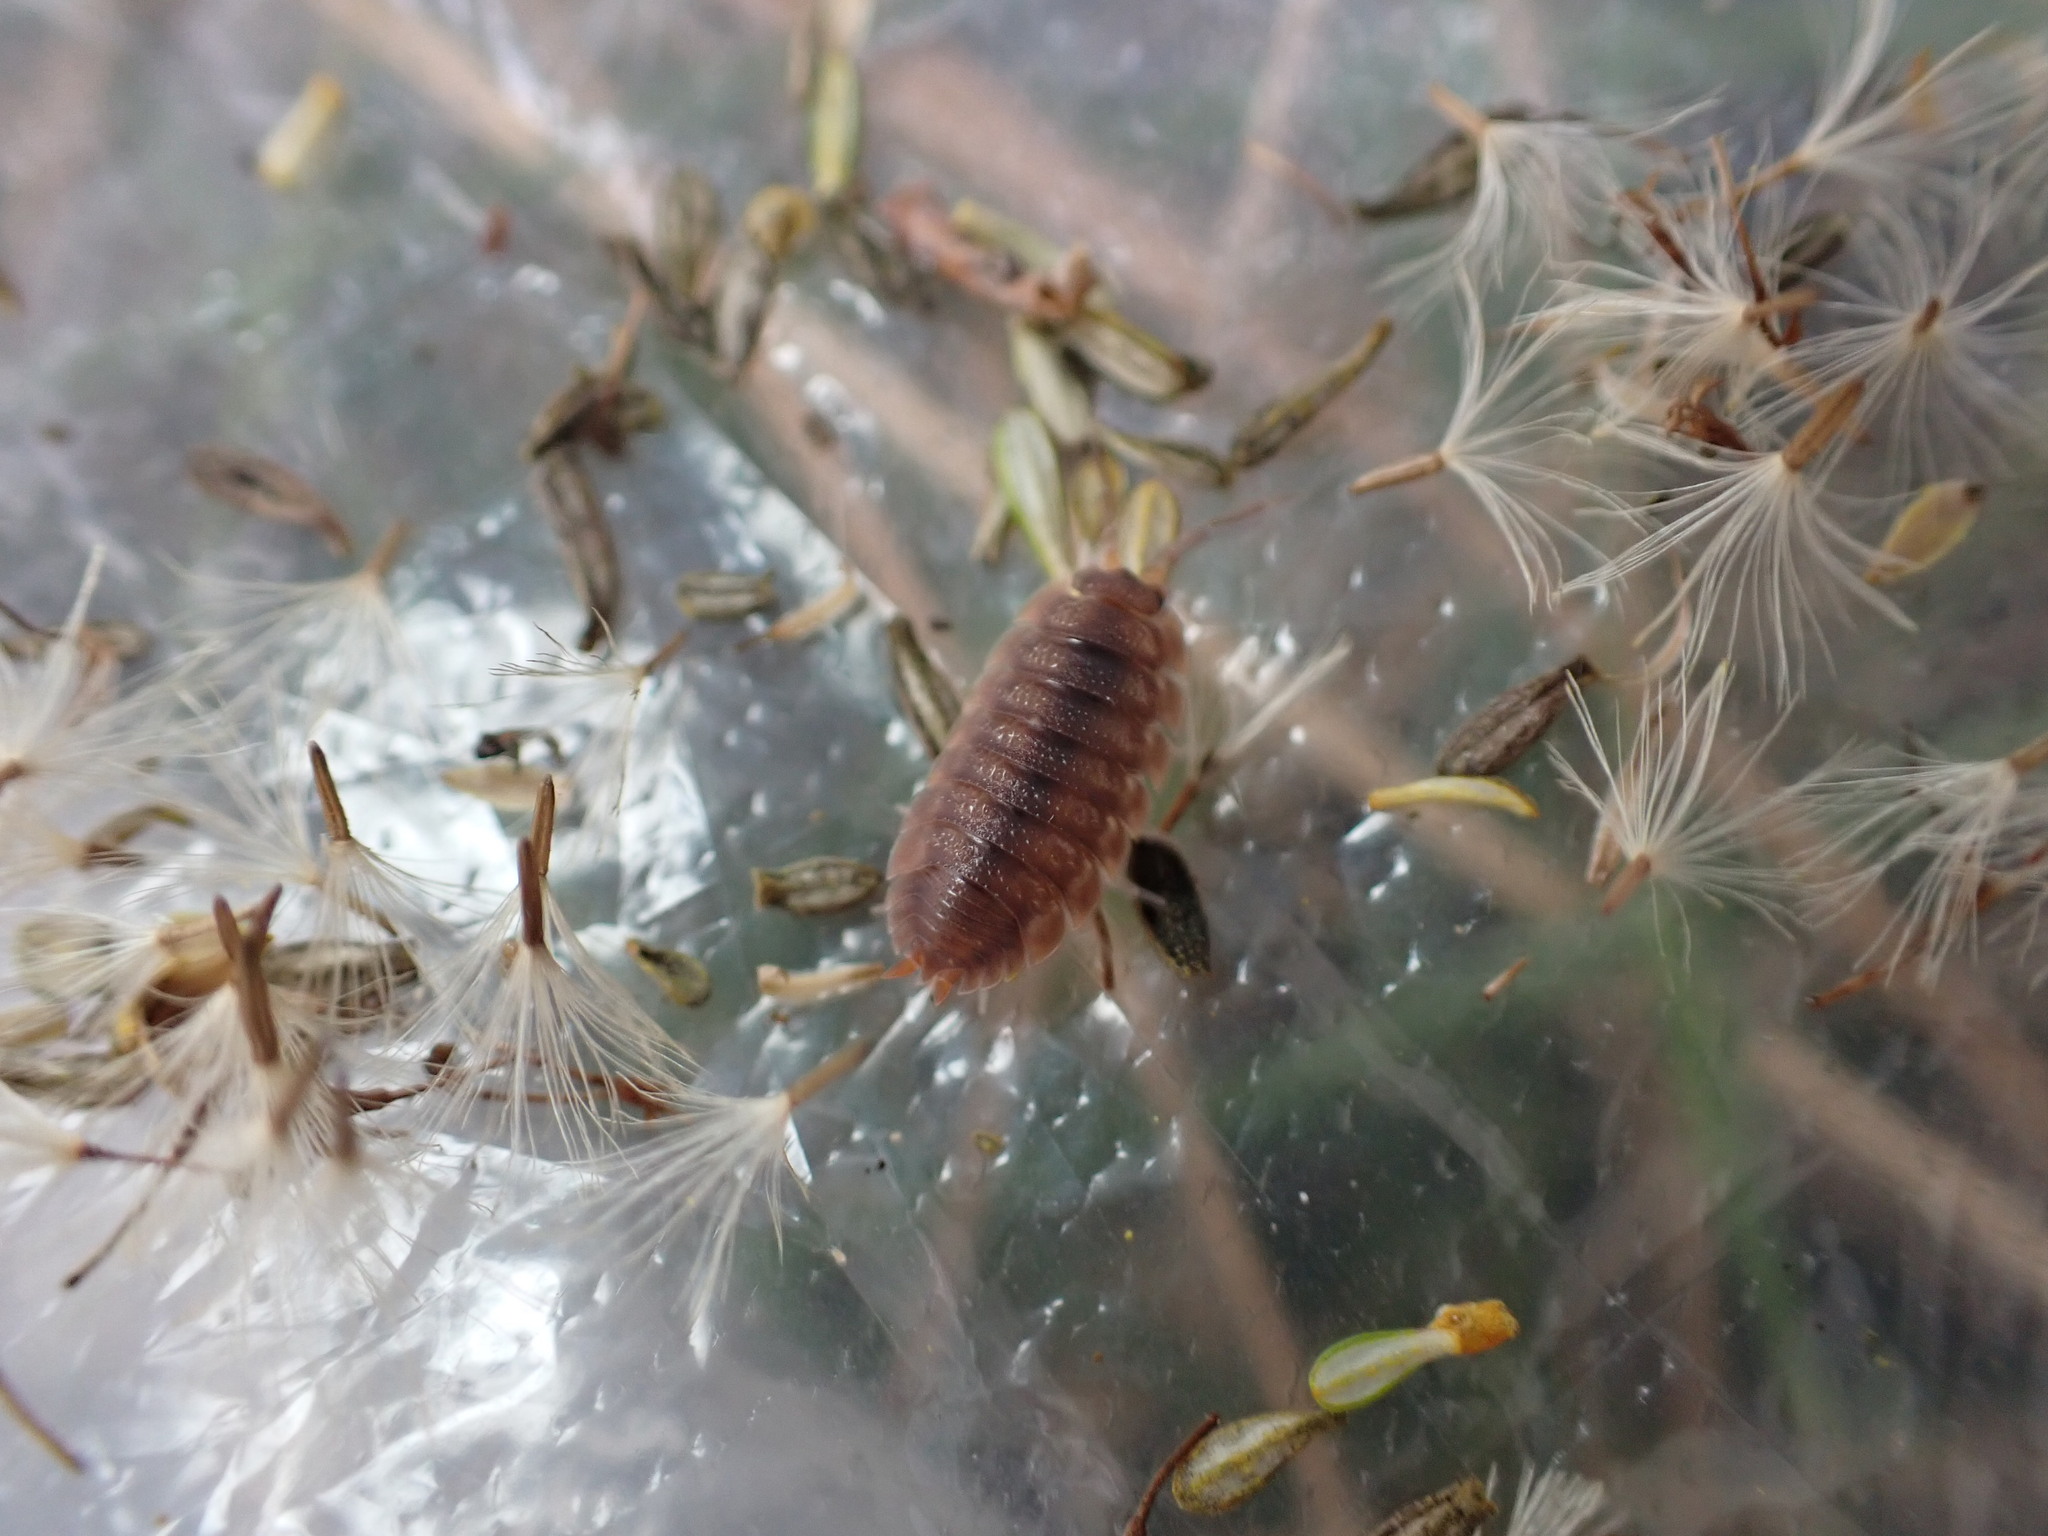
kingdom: Animalia
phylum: Arthropoda
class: Malacostraca
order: Isopoda
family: Porcellionidae
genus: Porcellio
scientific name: Porcellio scaber
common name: Common rough woodlouse
